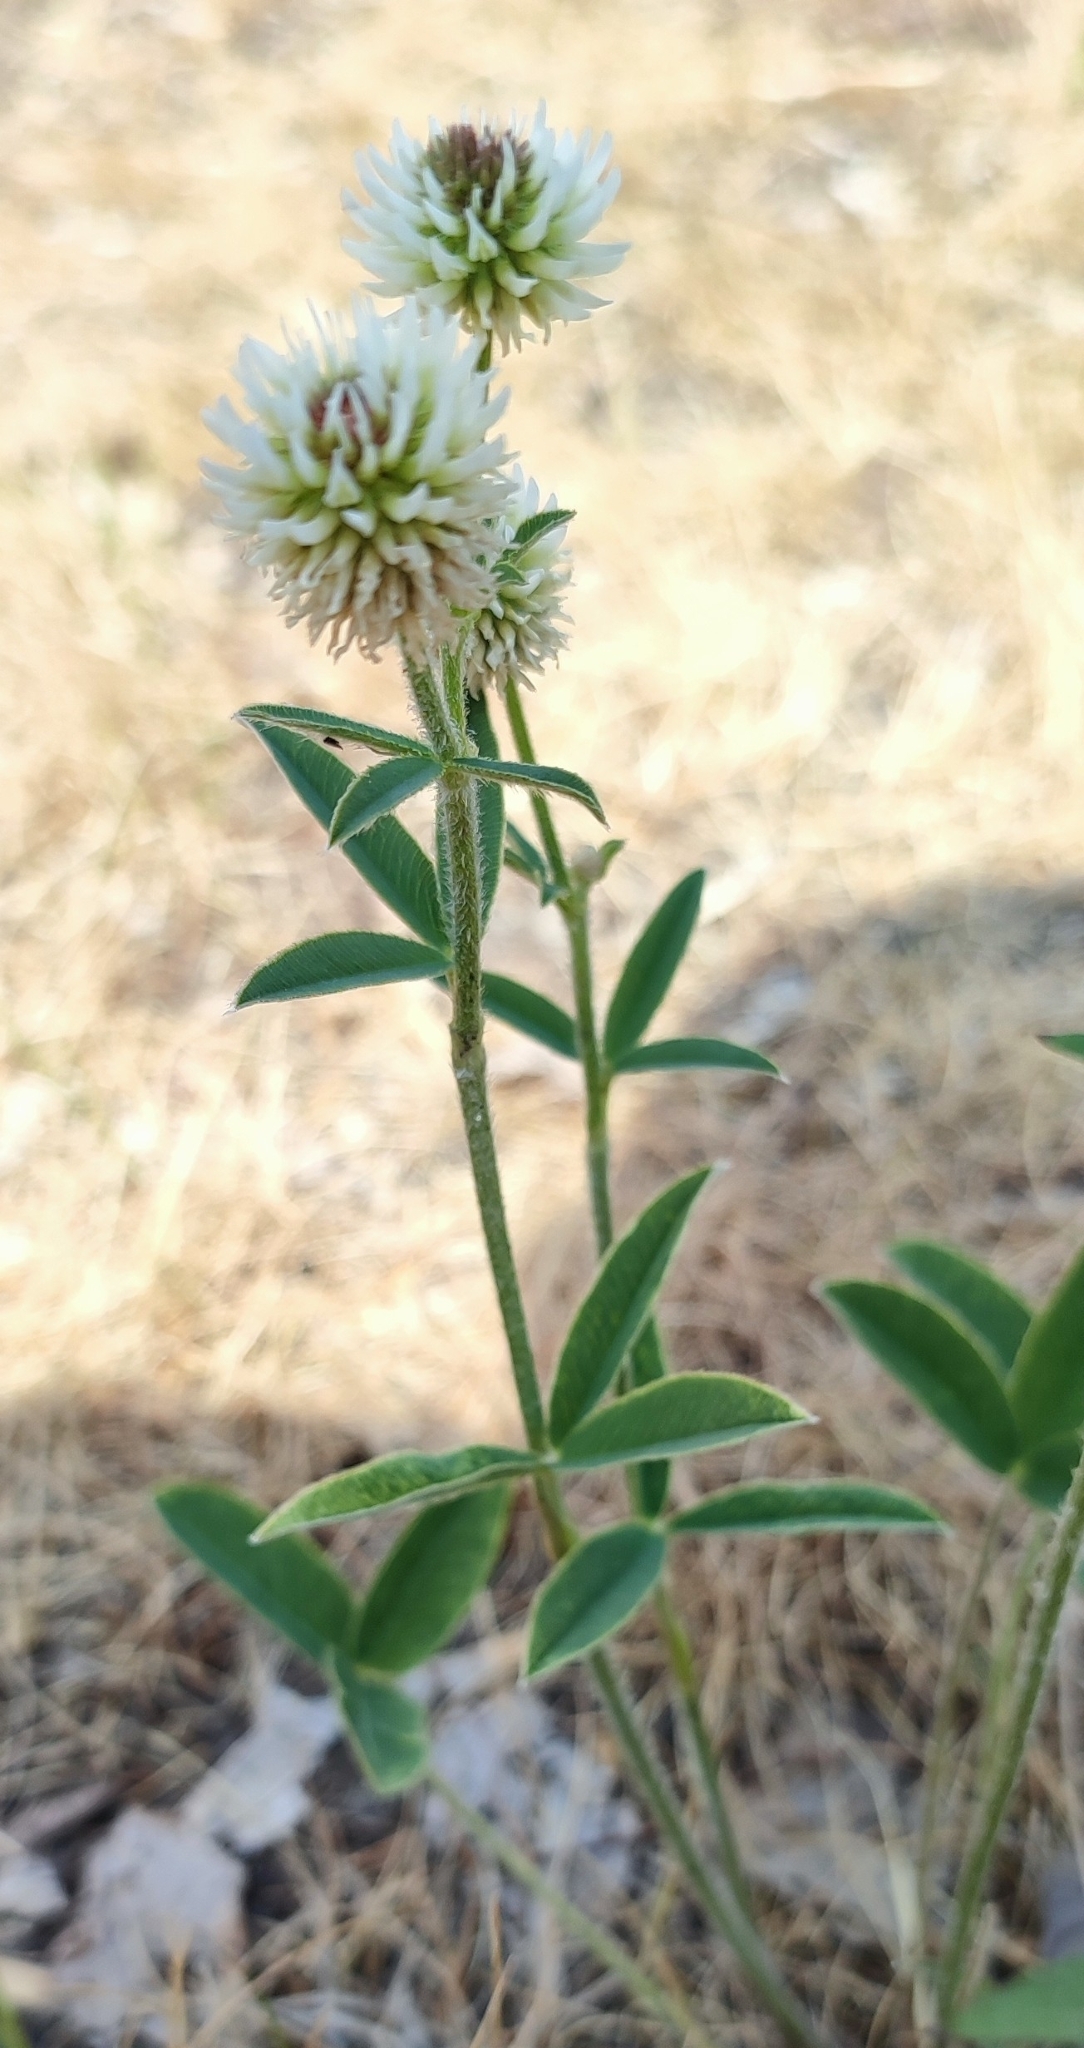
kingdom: Plantae
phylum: Tracheophyta
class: Magnoliopsida
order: Fabales
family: Fabaceae
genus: Trifolium
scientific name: Trifolium montanum
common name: Mountain clover
